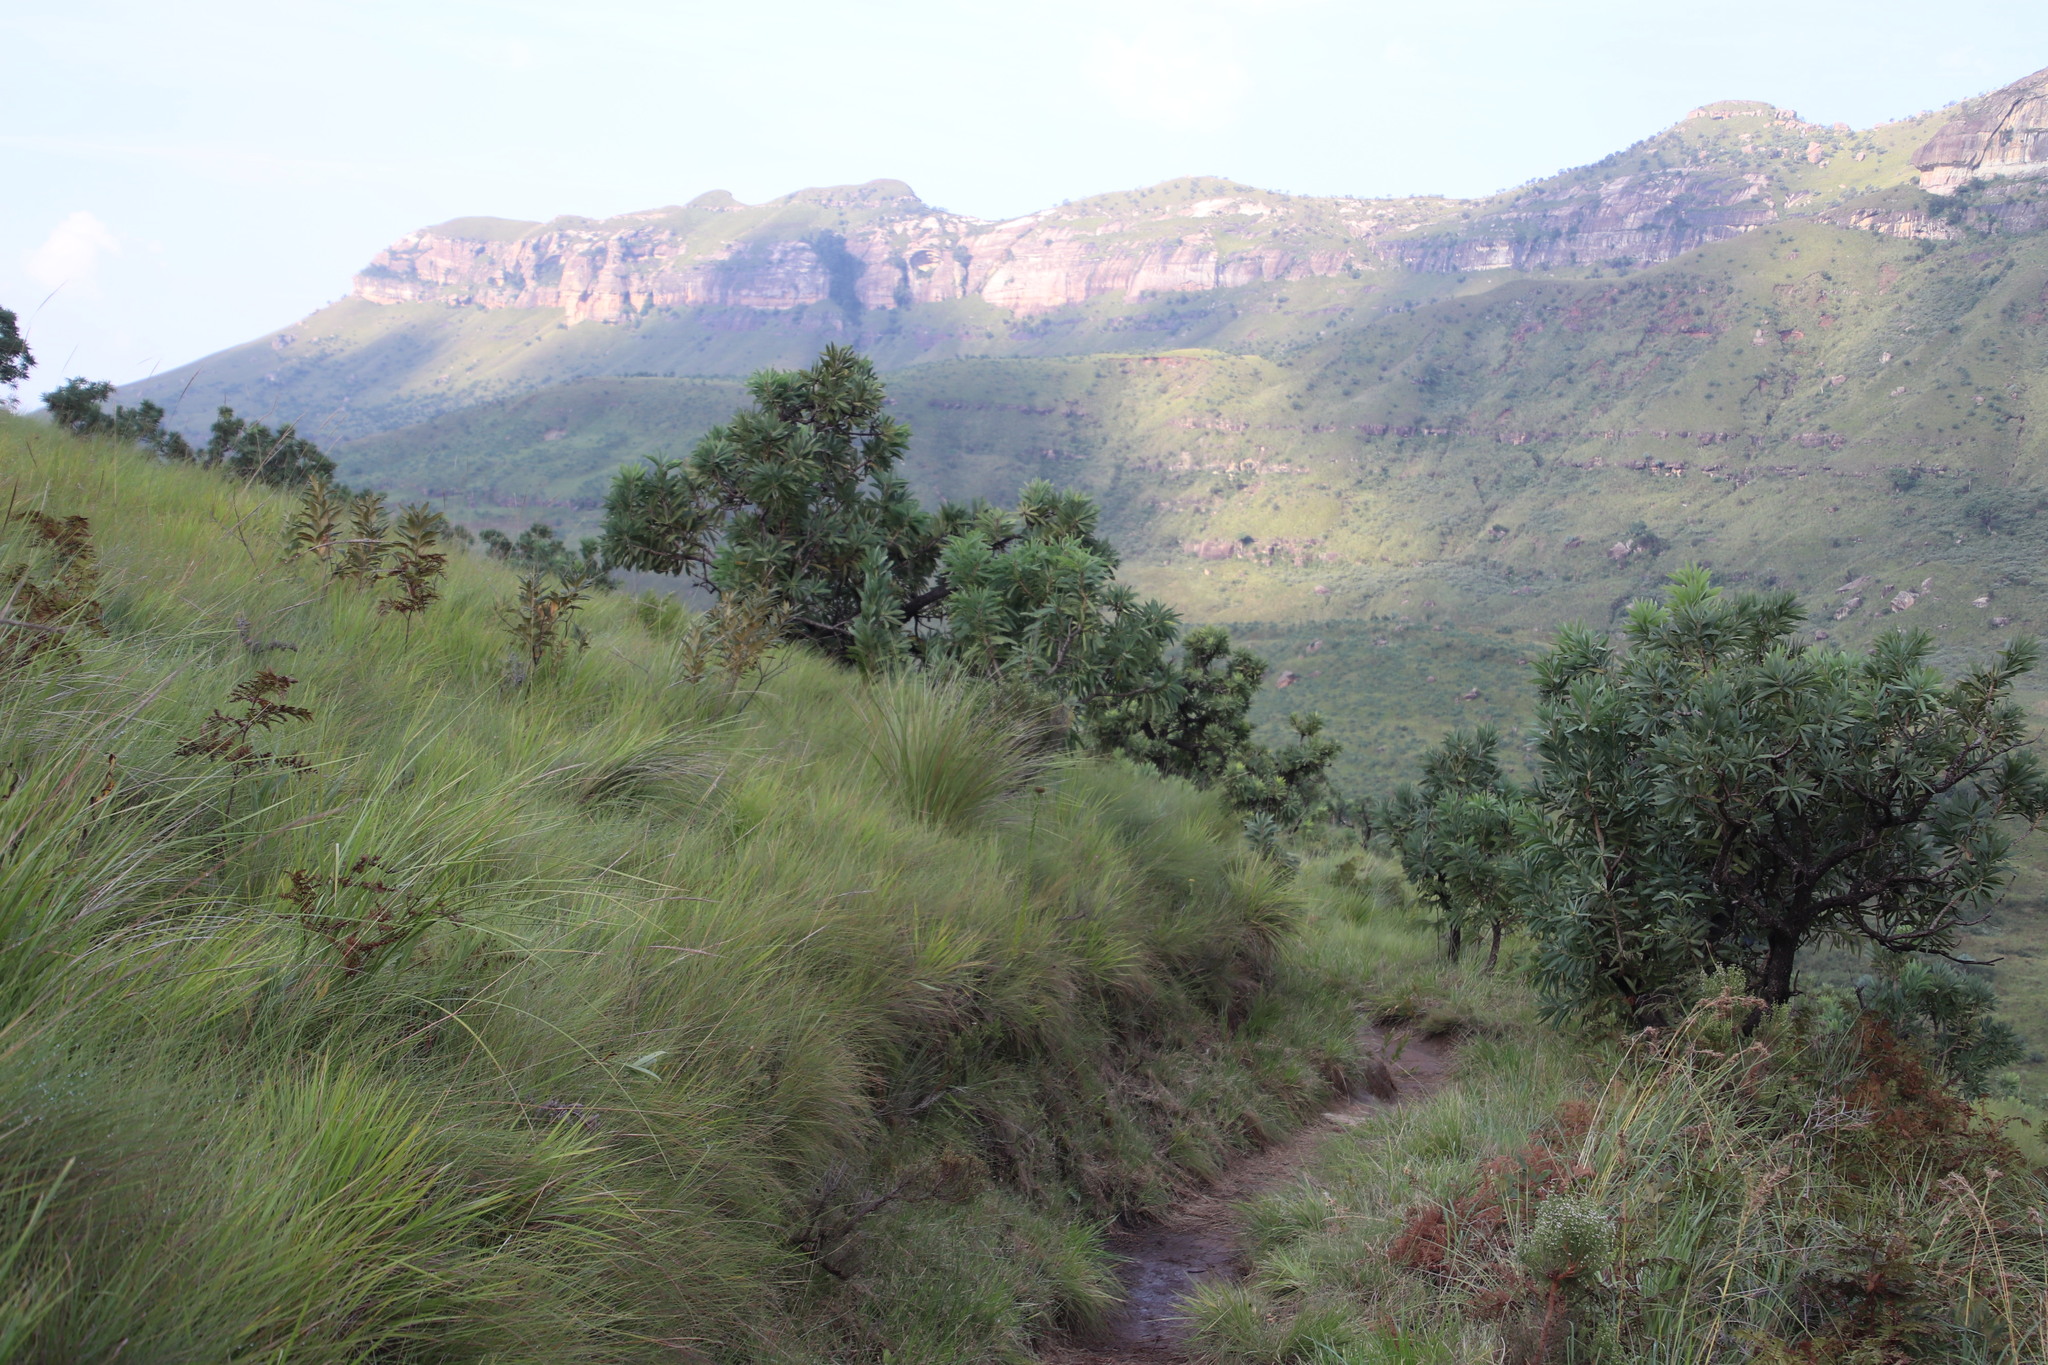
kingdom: Plantae
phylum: Tracheophyta
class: Magnoliopsida
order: Proteales
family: Proteaceae
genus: Protea
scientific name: Protea caffra
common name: Common sugarbush
